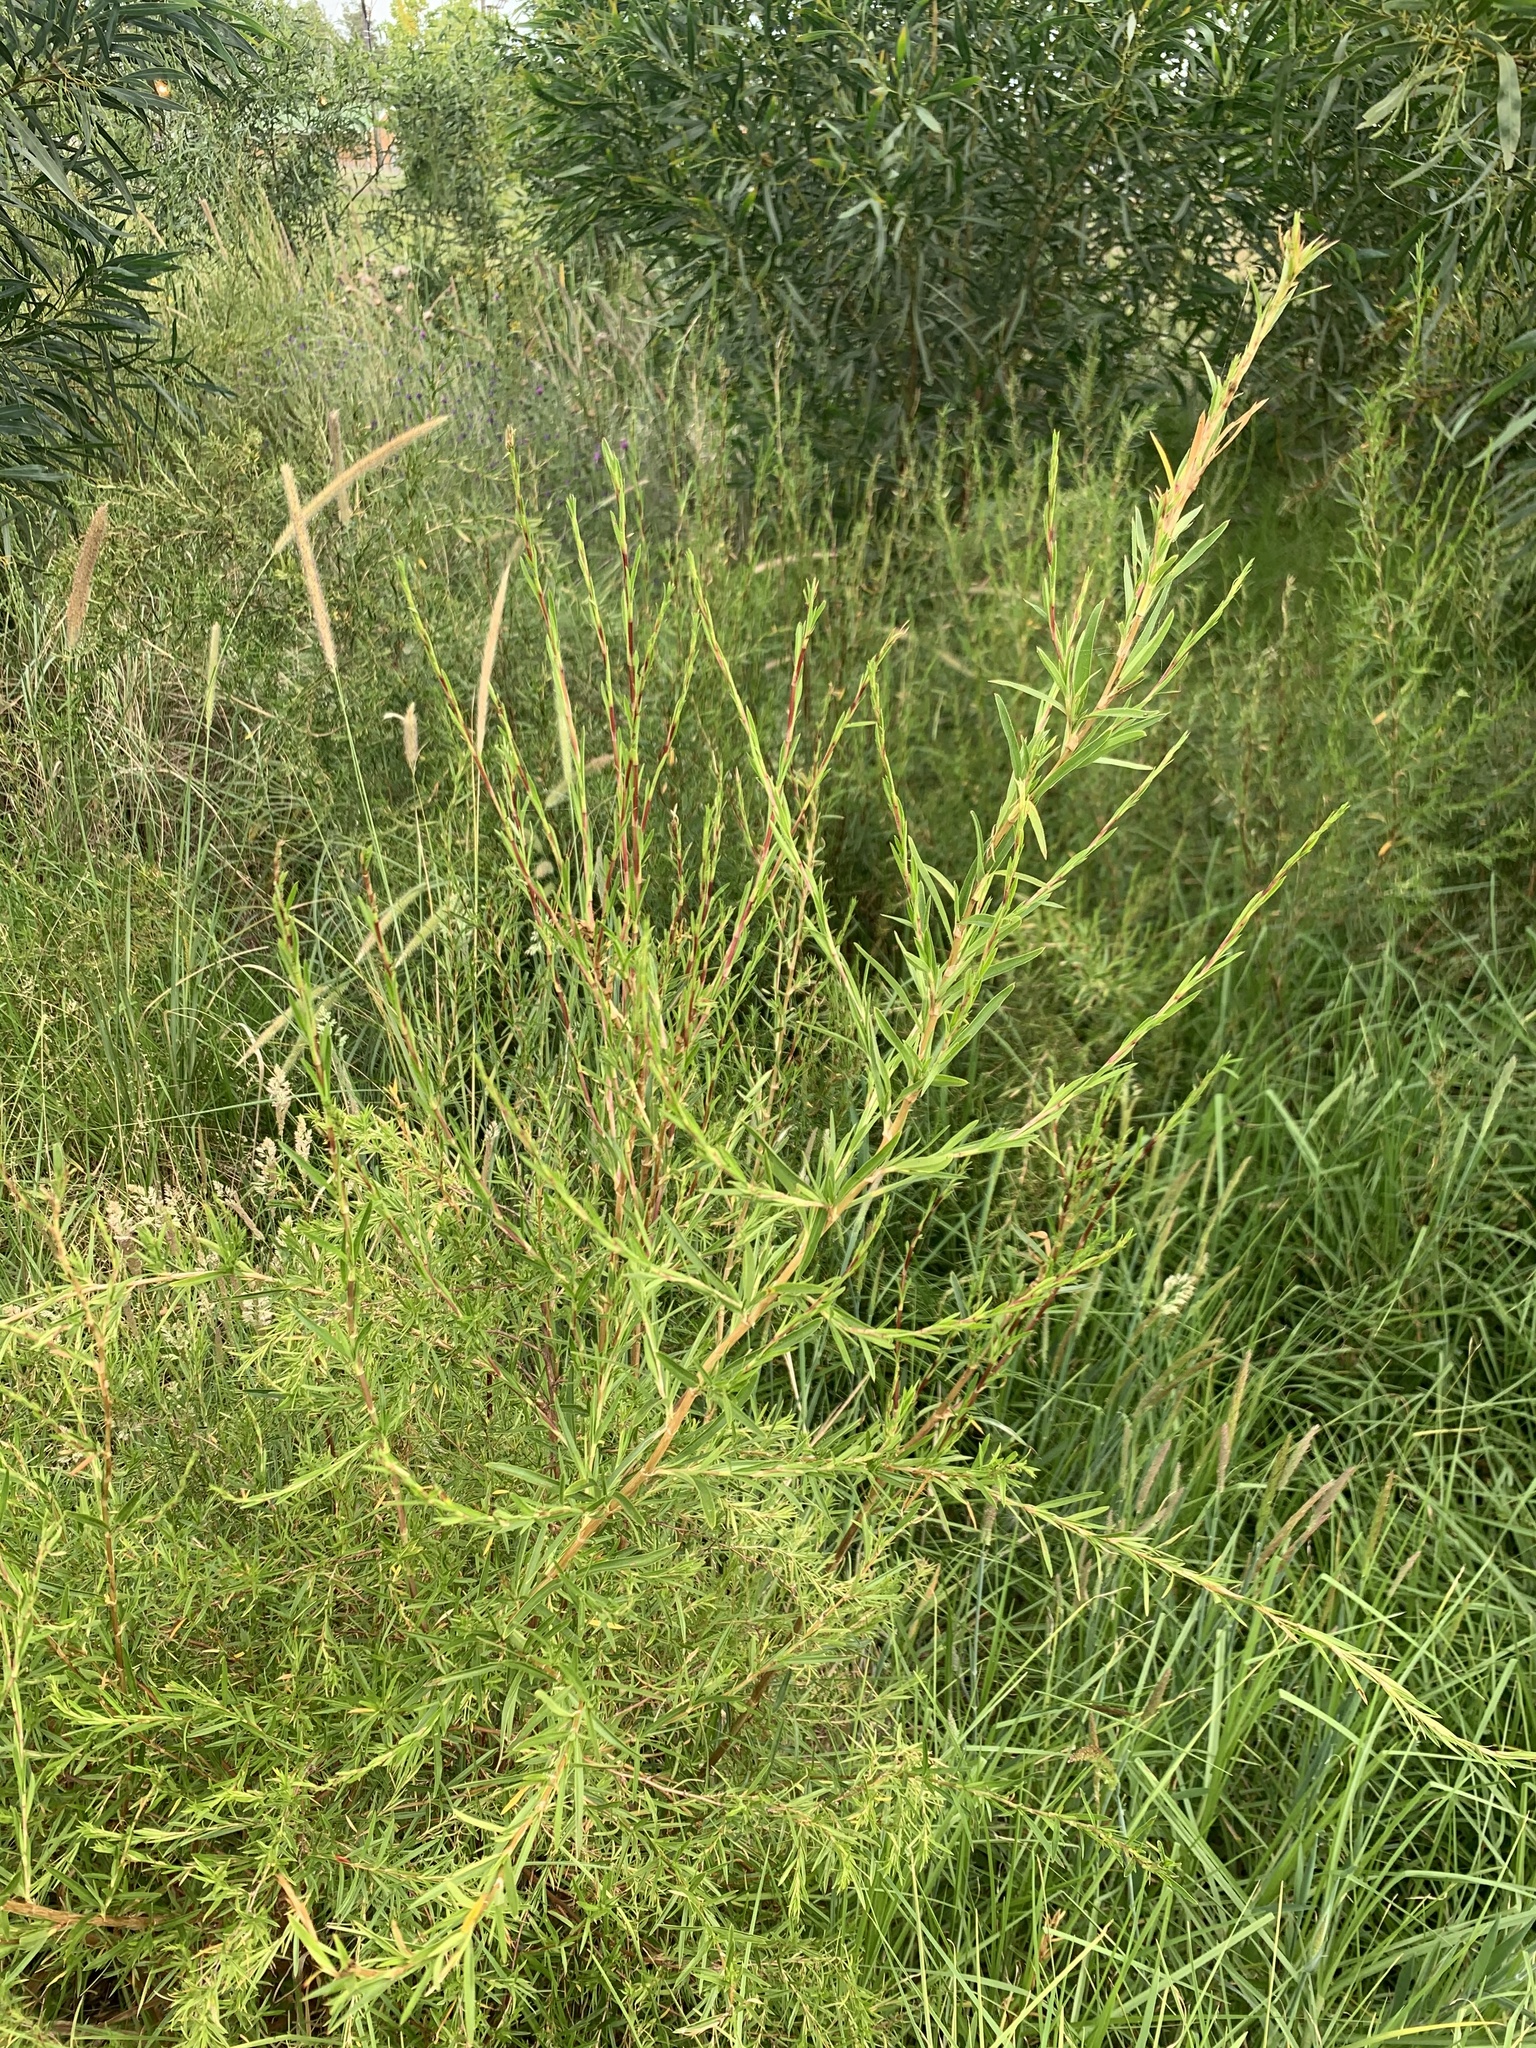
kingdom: Plantae
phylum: Tracheophyta
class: Magnoliopsida
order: Rosales
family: Rosaceae
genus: Cliffortia
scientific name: Cliffortia strobilifera
